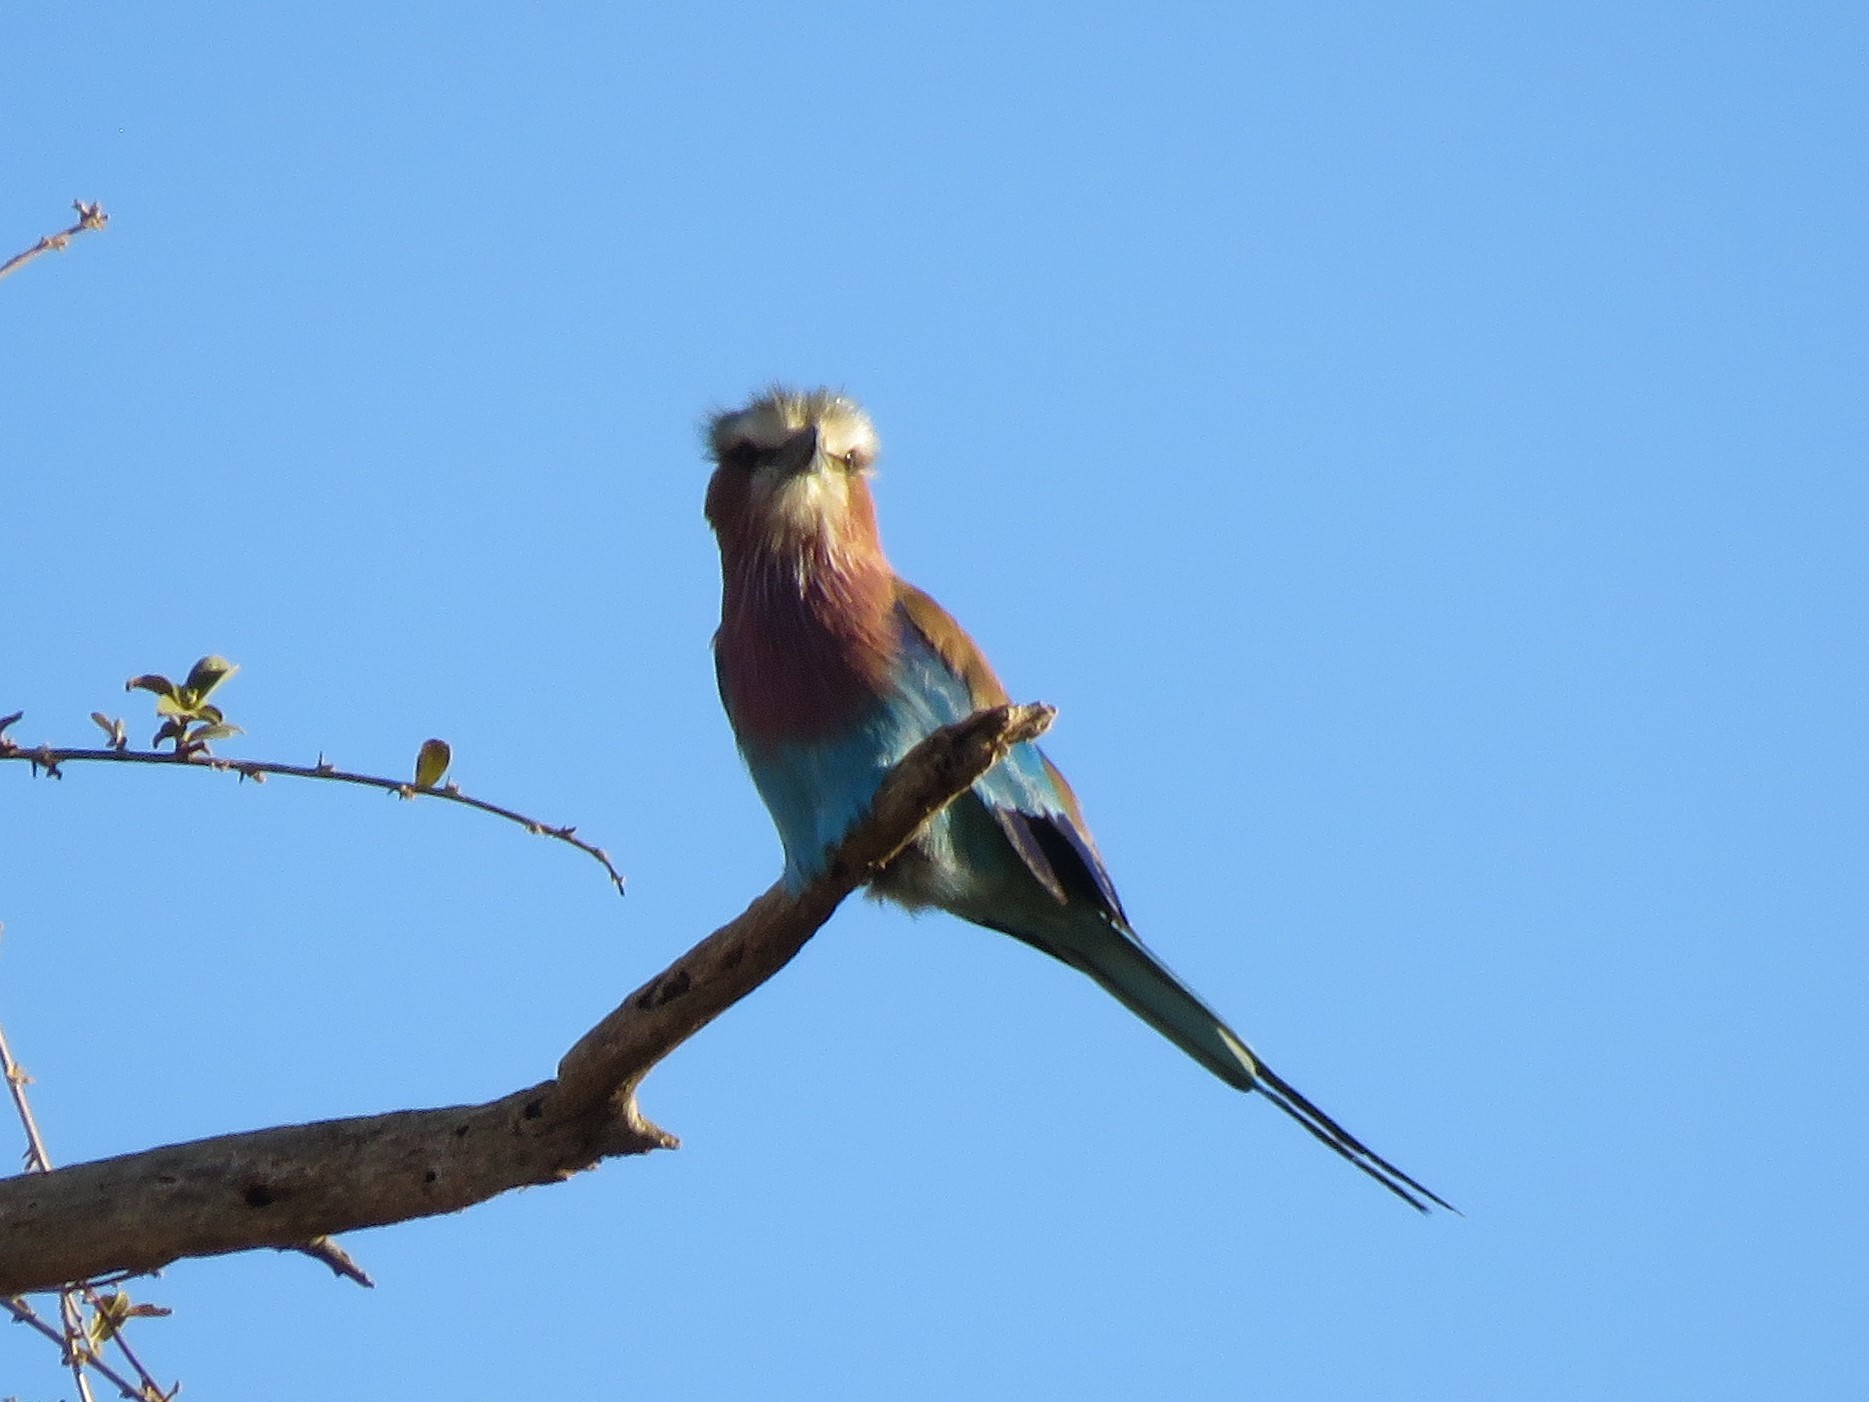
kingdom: Animalia
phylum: Chordata
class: Aves
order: Coraciiformes
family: Coraciidae
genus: Coracias
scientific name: Coracias caudatus
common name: Lilac-breasted roller
